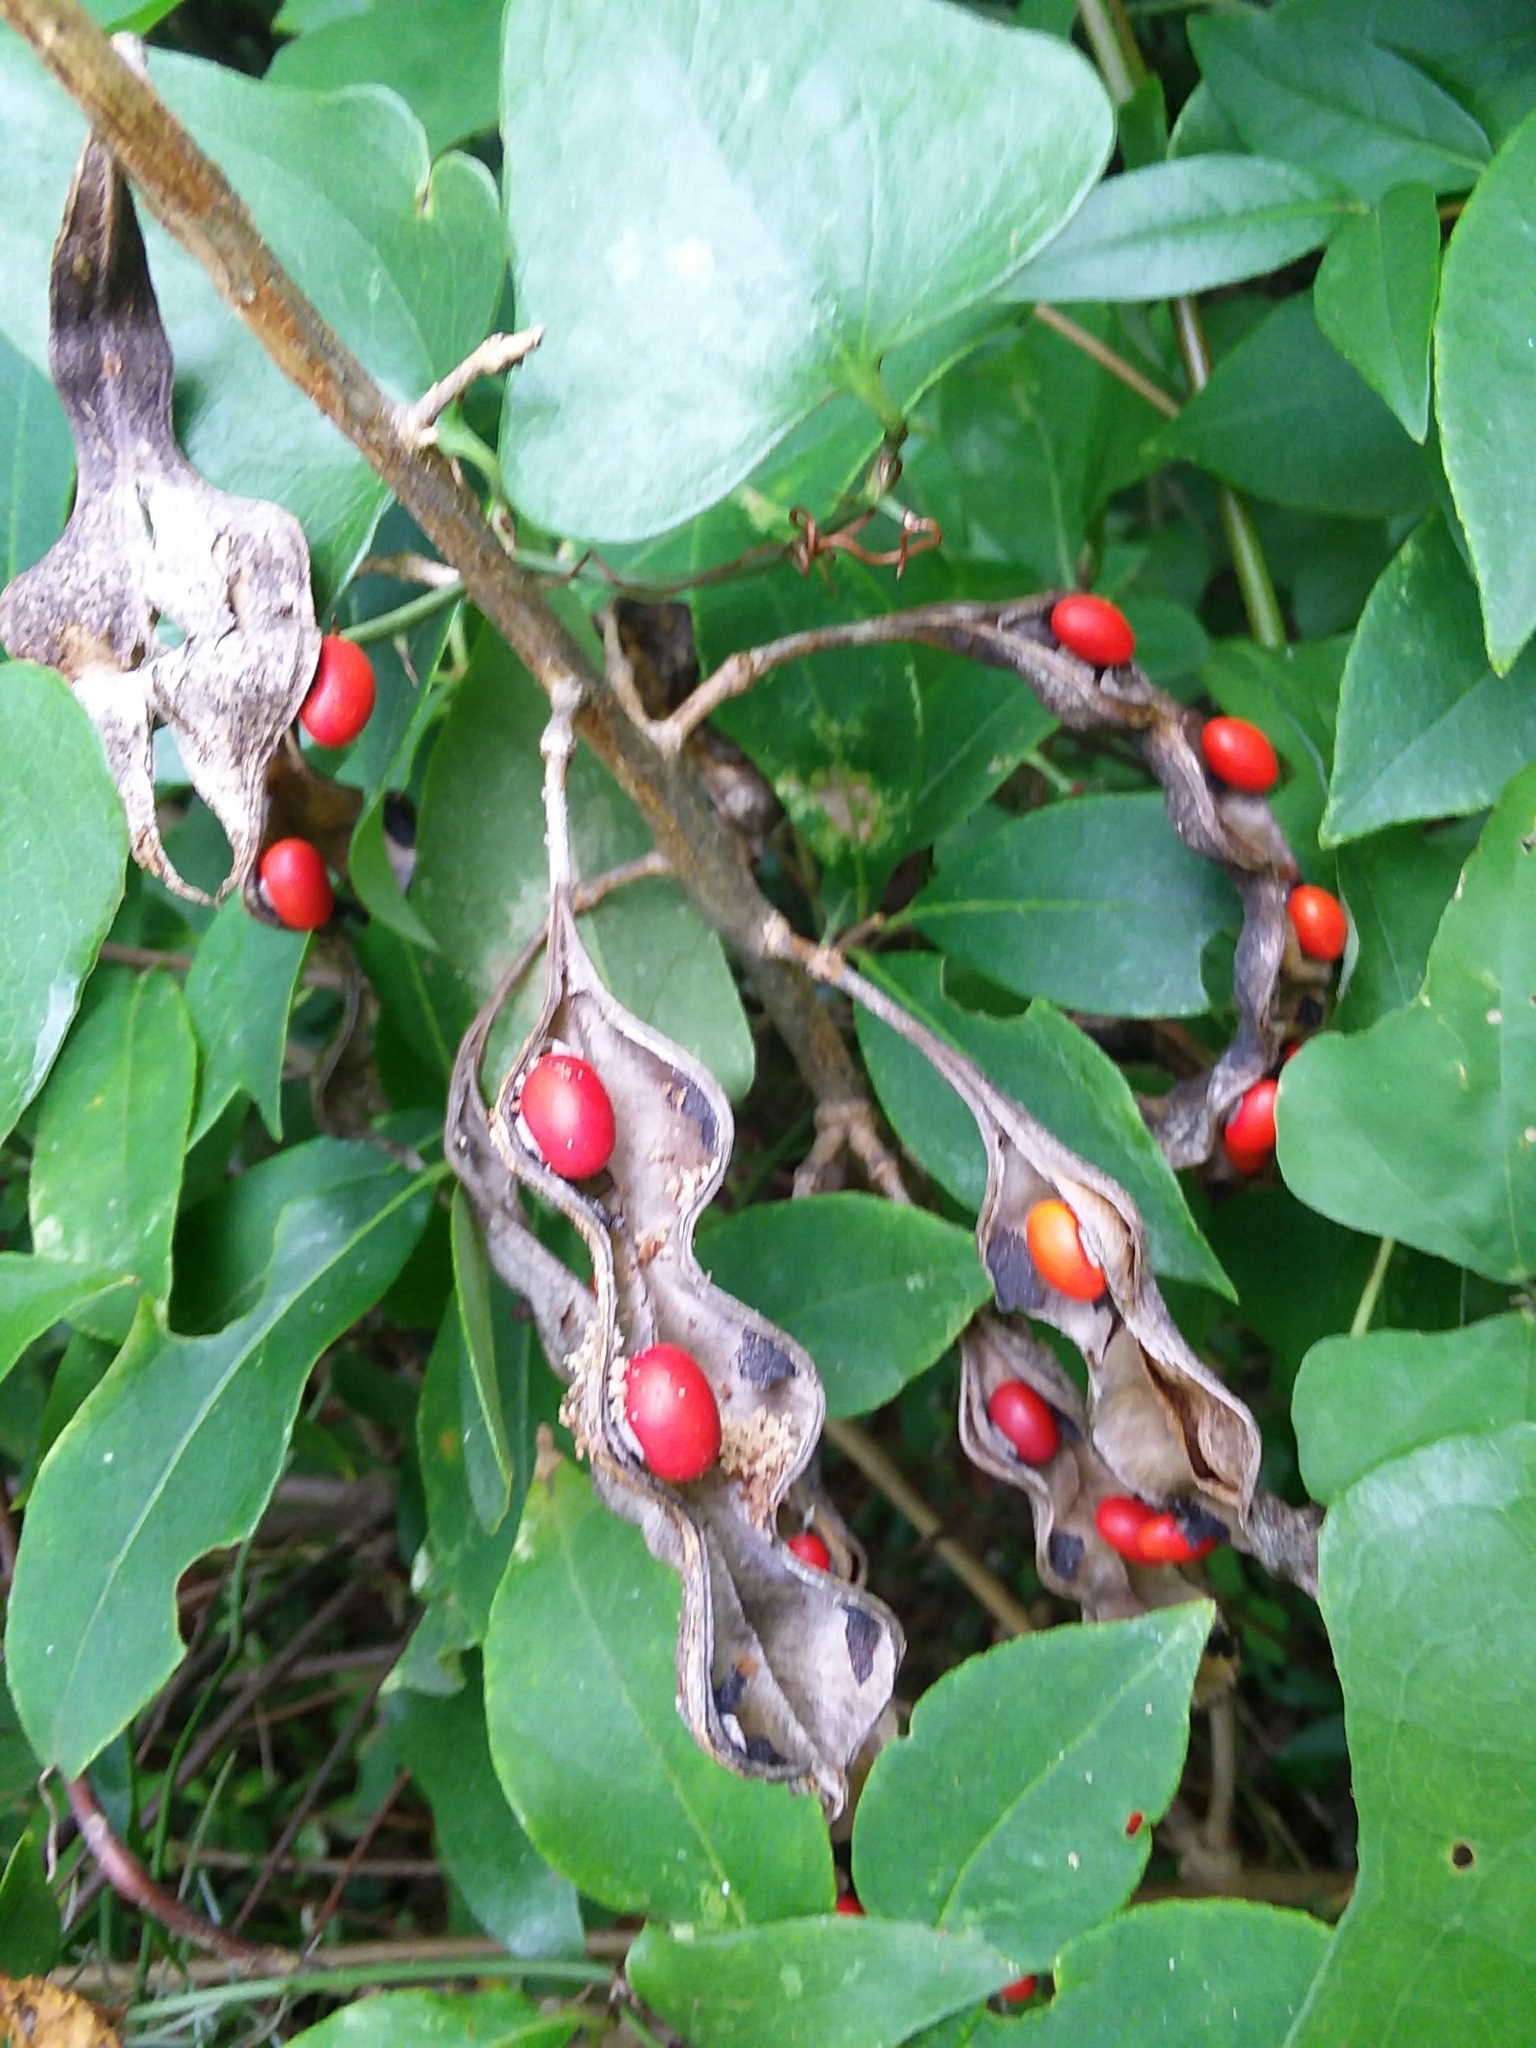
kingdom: Plantae
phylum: Tracheophyta
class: Magnoliopsida
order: Fabales
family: Fabaceae
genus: Erythrina
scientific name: Erythrina herbacea
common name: Coral-bean
